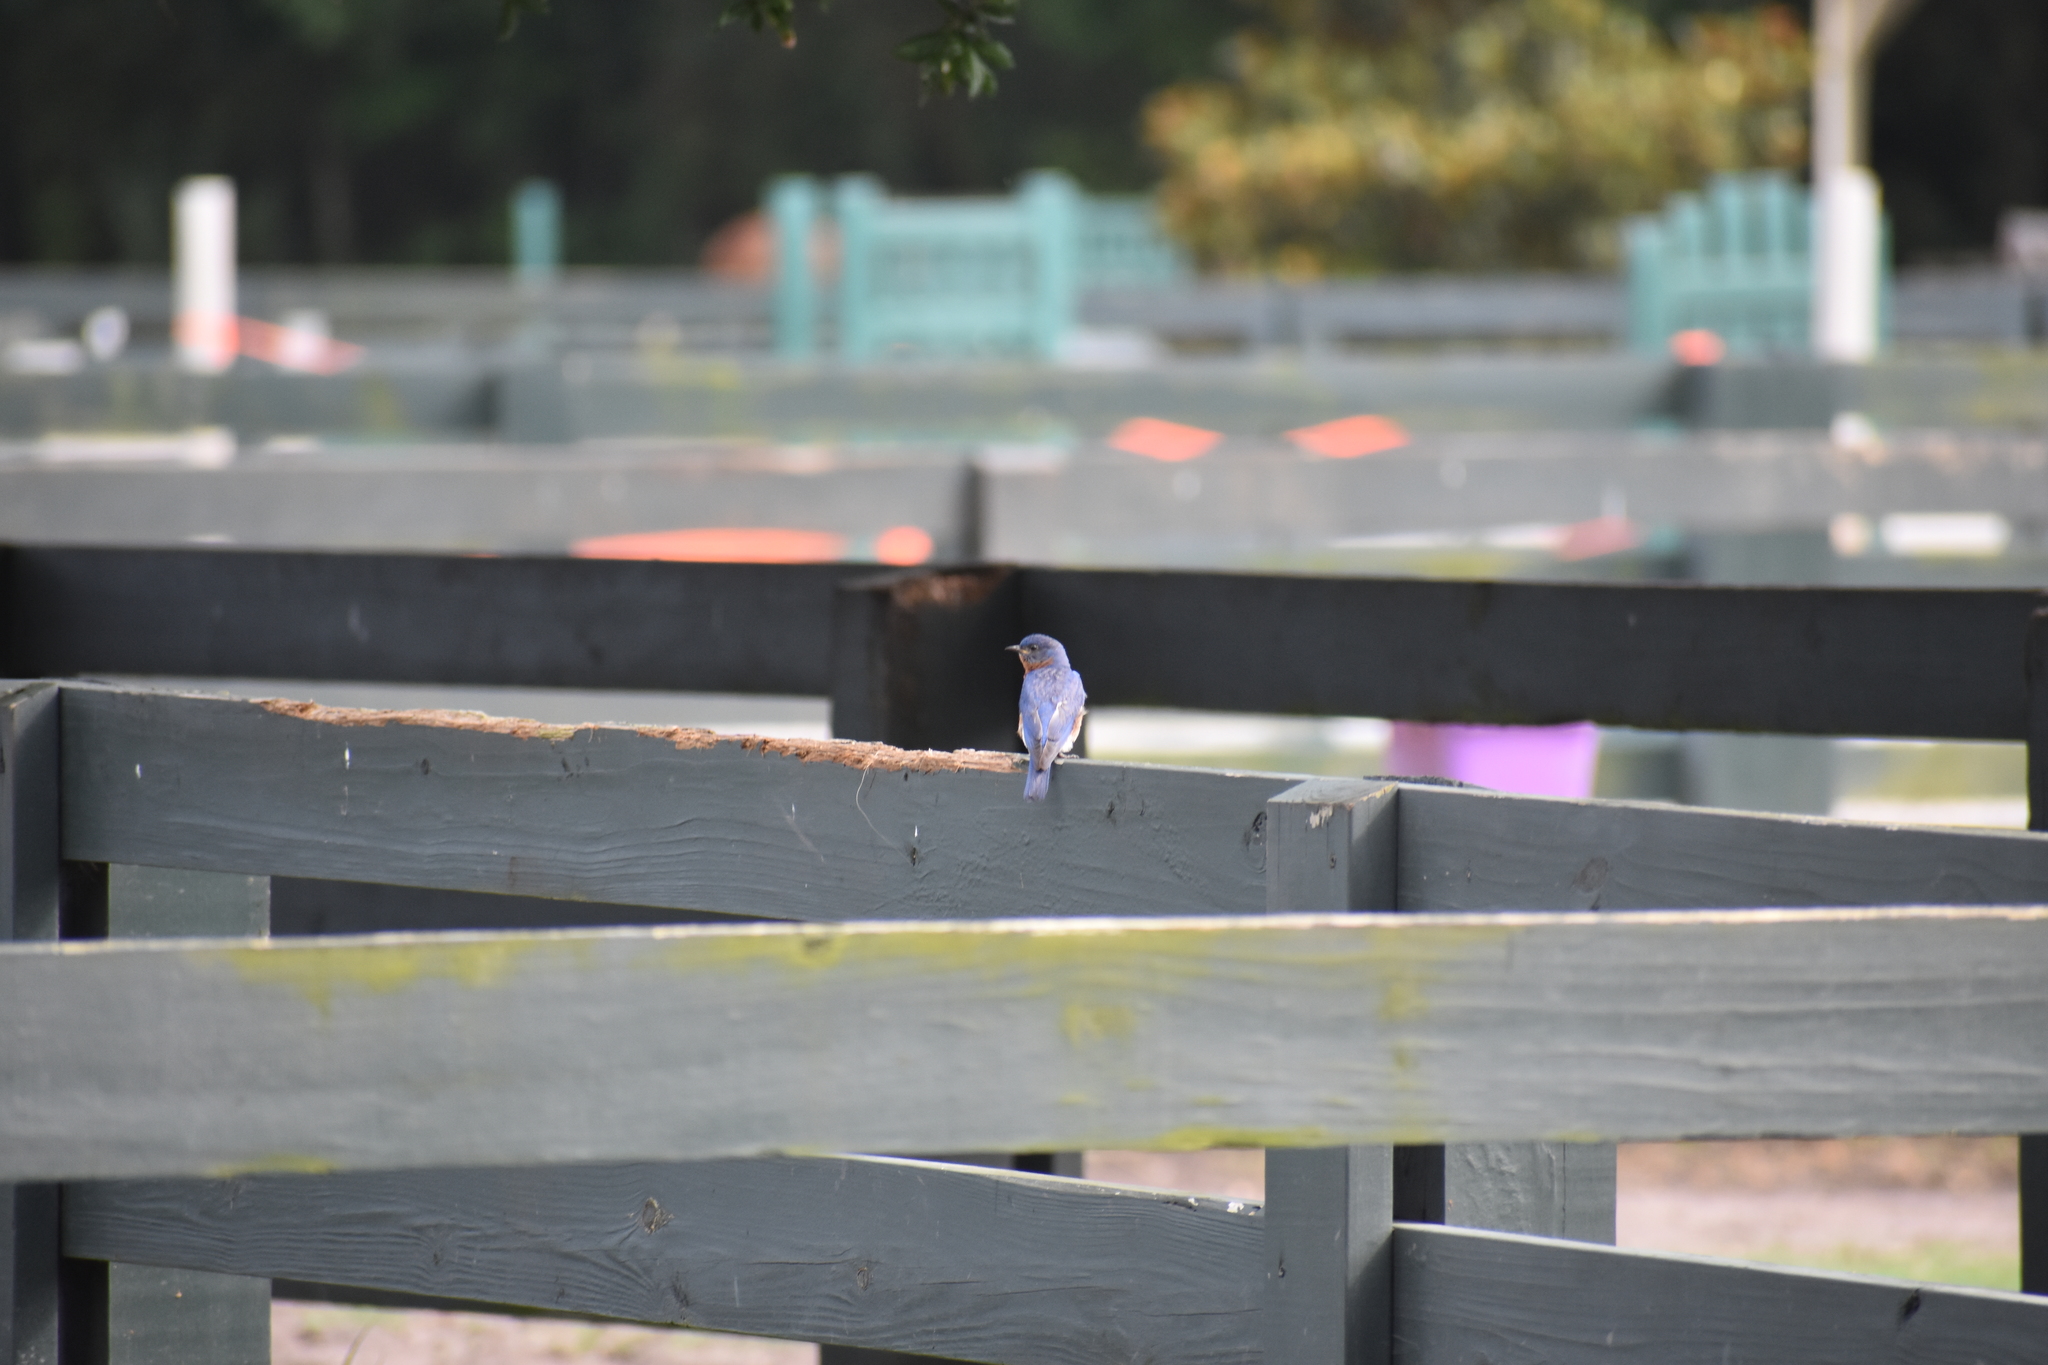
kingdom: Animalia
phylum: Chordata
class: Aves
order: Passeriformes
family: Turdidae
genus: Sialia
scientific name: Sialia sialis
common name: Eastern bluebird
